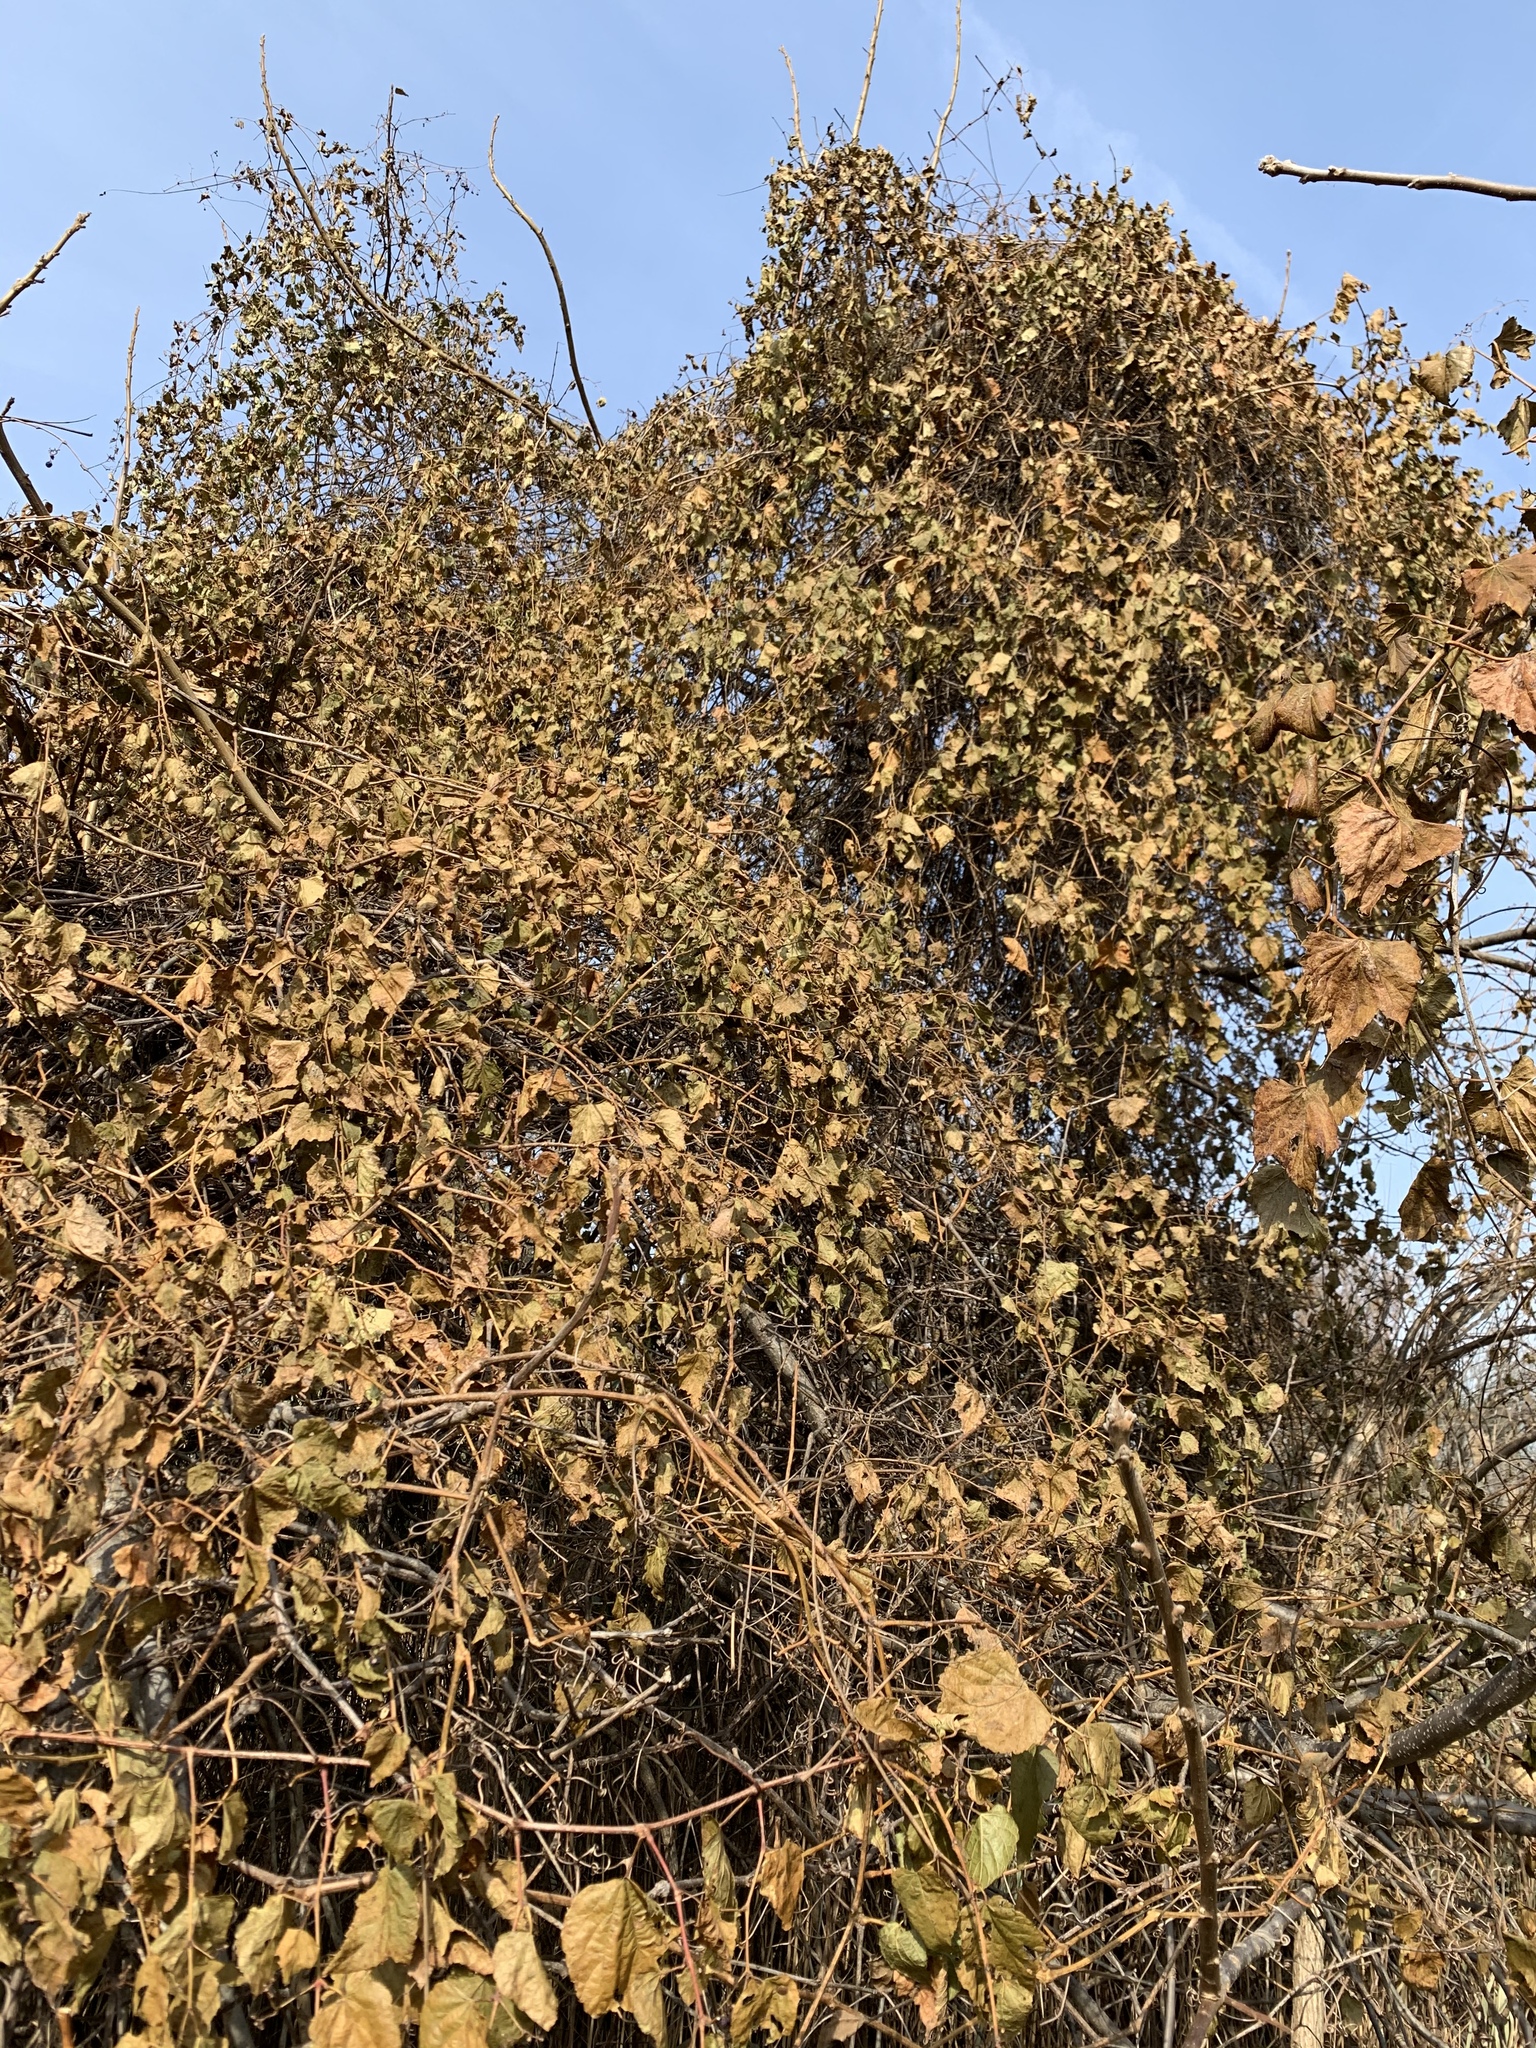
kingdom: Plantae
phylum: Tracheophyta
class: Magnoliopsida
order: Vitales
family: Vitaceae
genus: Ampelopsis
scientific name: Ampelopsis glandulosa
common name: Amur peppervine
